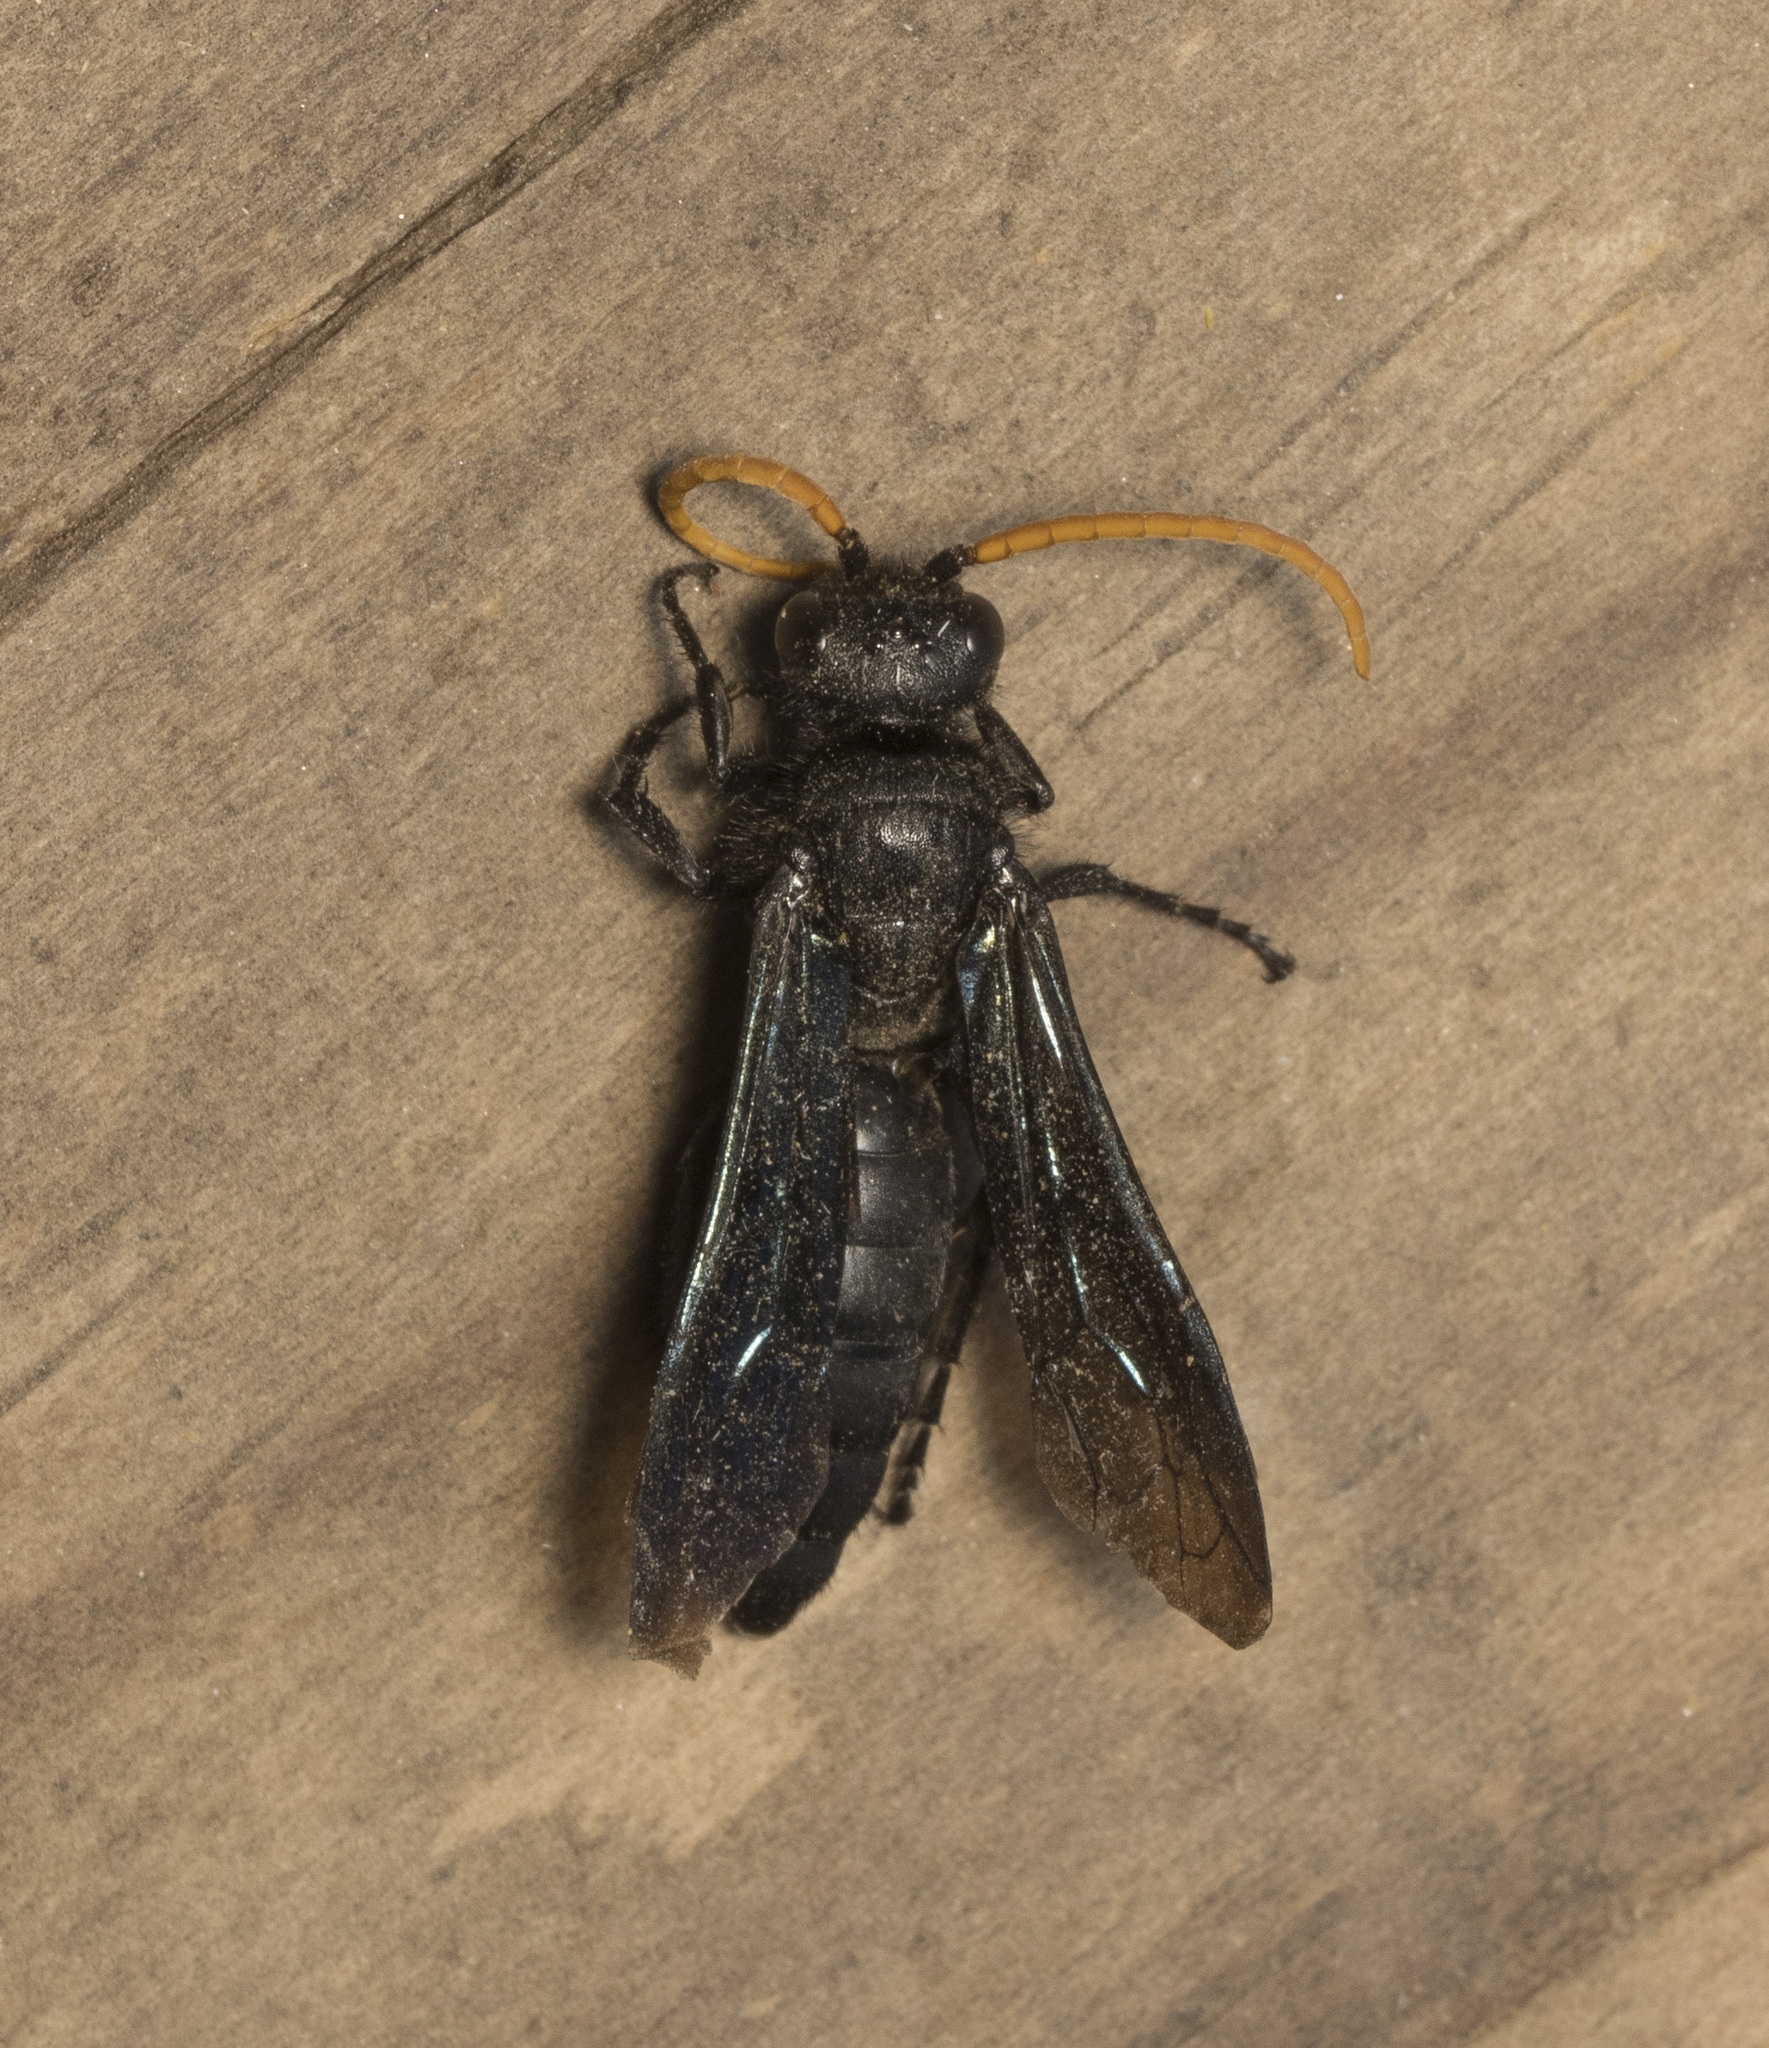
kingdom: Animalia
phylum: Arthropoda
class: Insecta
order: Hymenoptera
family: Tiphiidae
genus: Cosila
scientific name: Cosila
